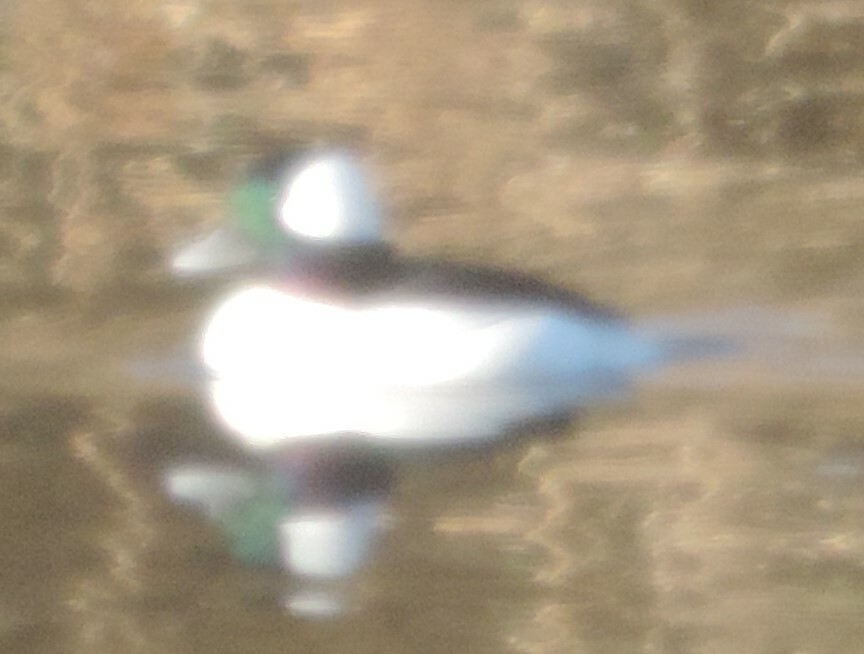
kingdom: Animalia
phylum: Chordata
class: Aves
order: Anseriformes
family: Anatidae
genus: Bucephala
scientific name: Bucephala albeola
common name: Bufflehead
